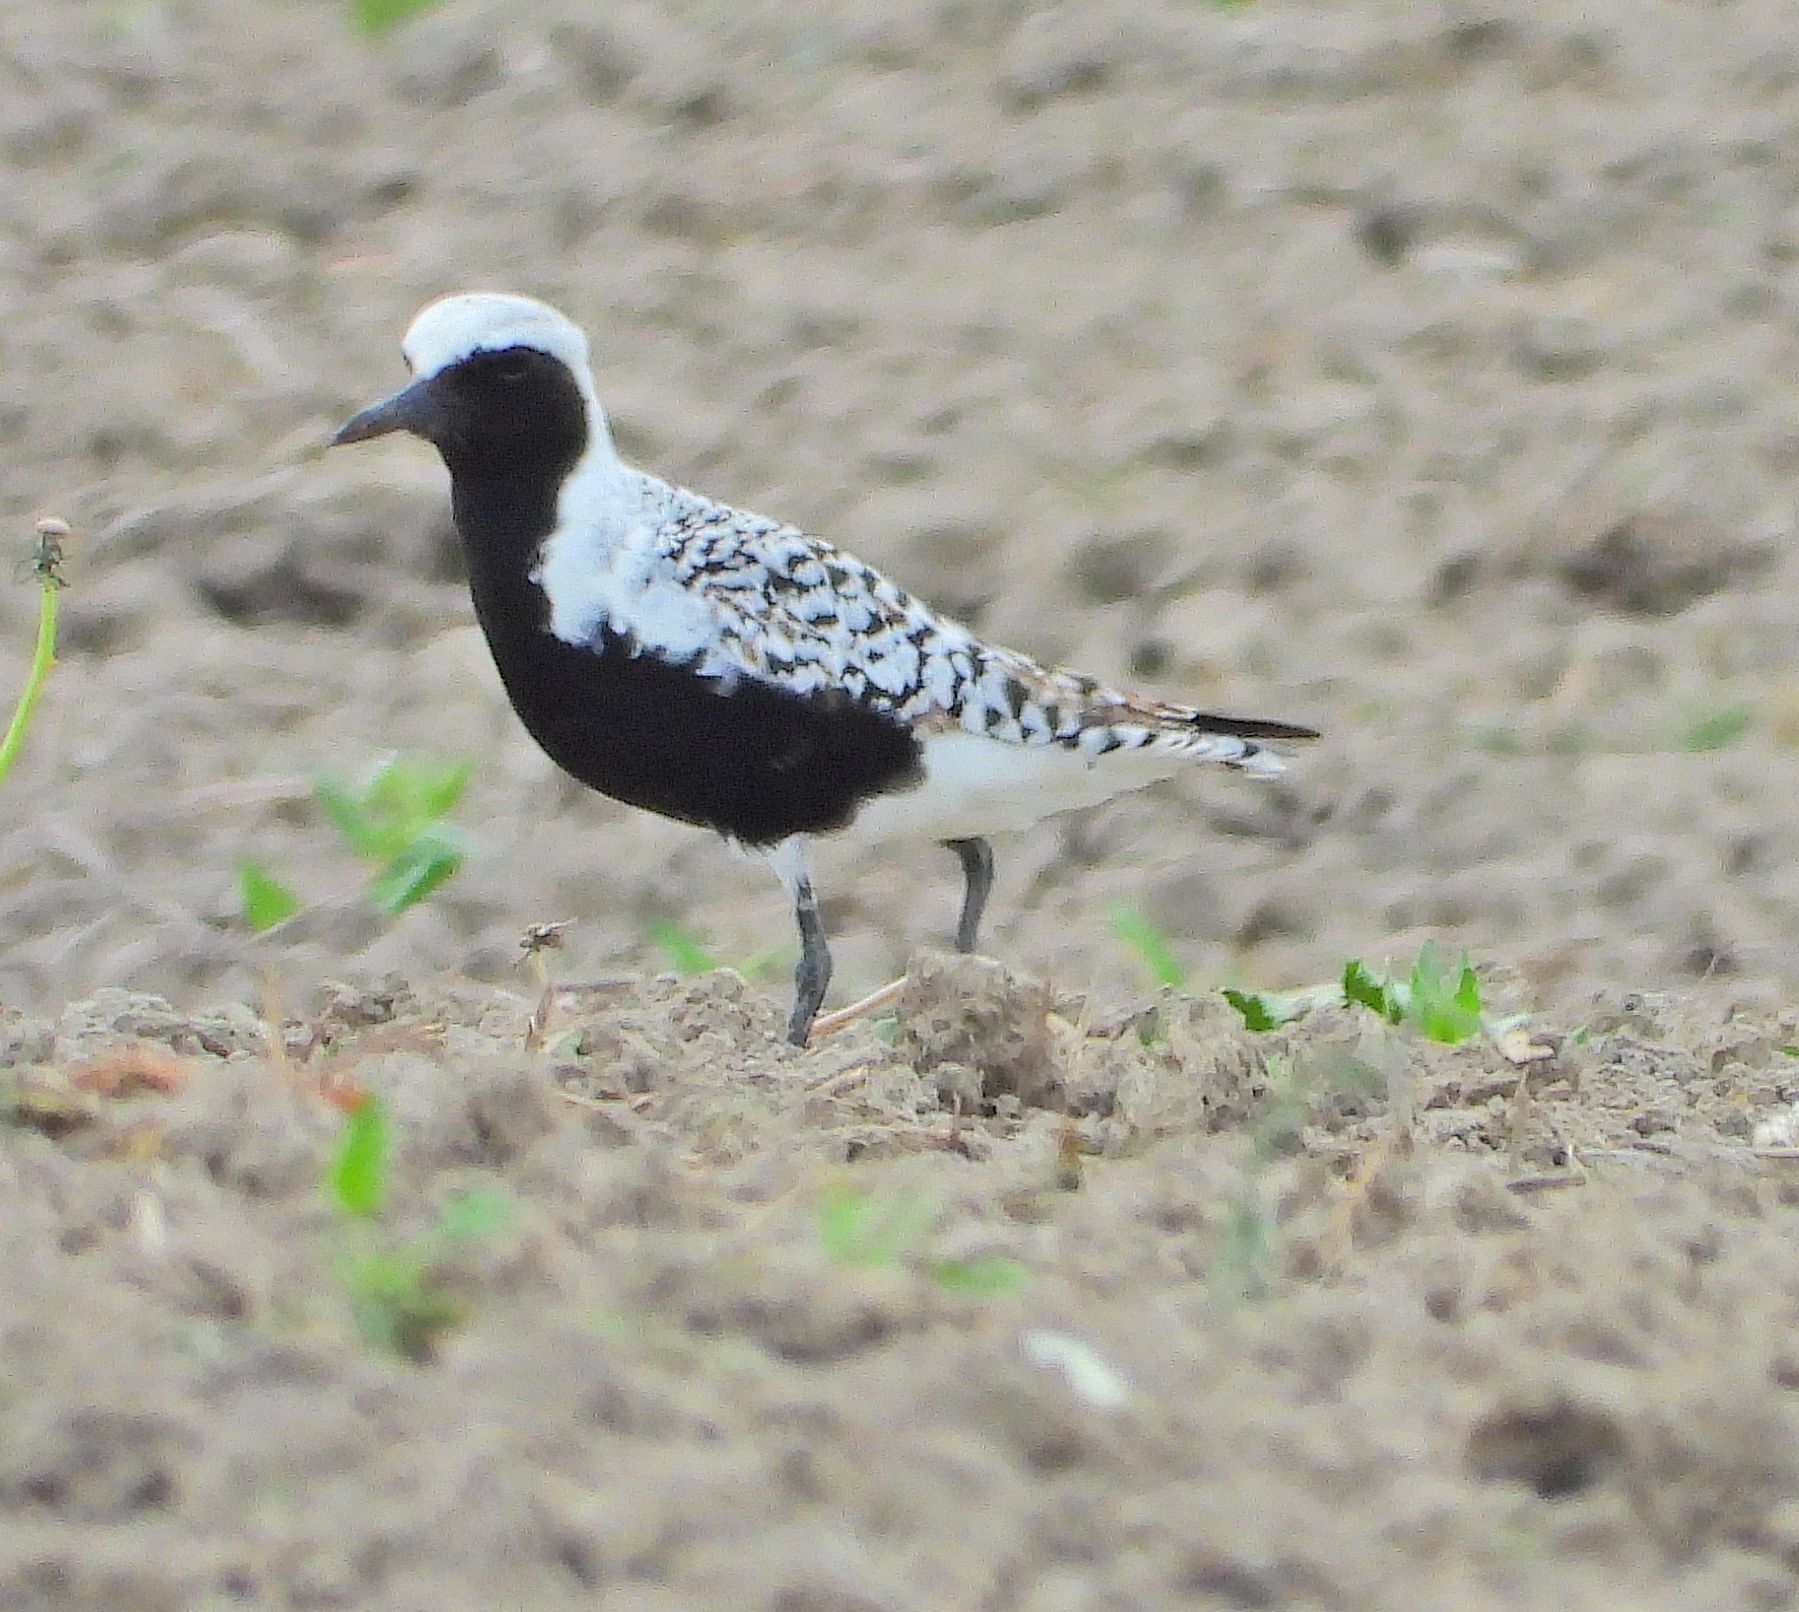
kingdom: Animalia
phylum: Chordata
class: Aves
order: Charadriiformes
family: Charadriidae
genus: Pluvialis
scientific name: Pluvialis squatarola
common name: Grey plover
